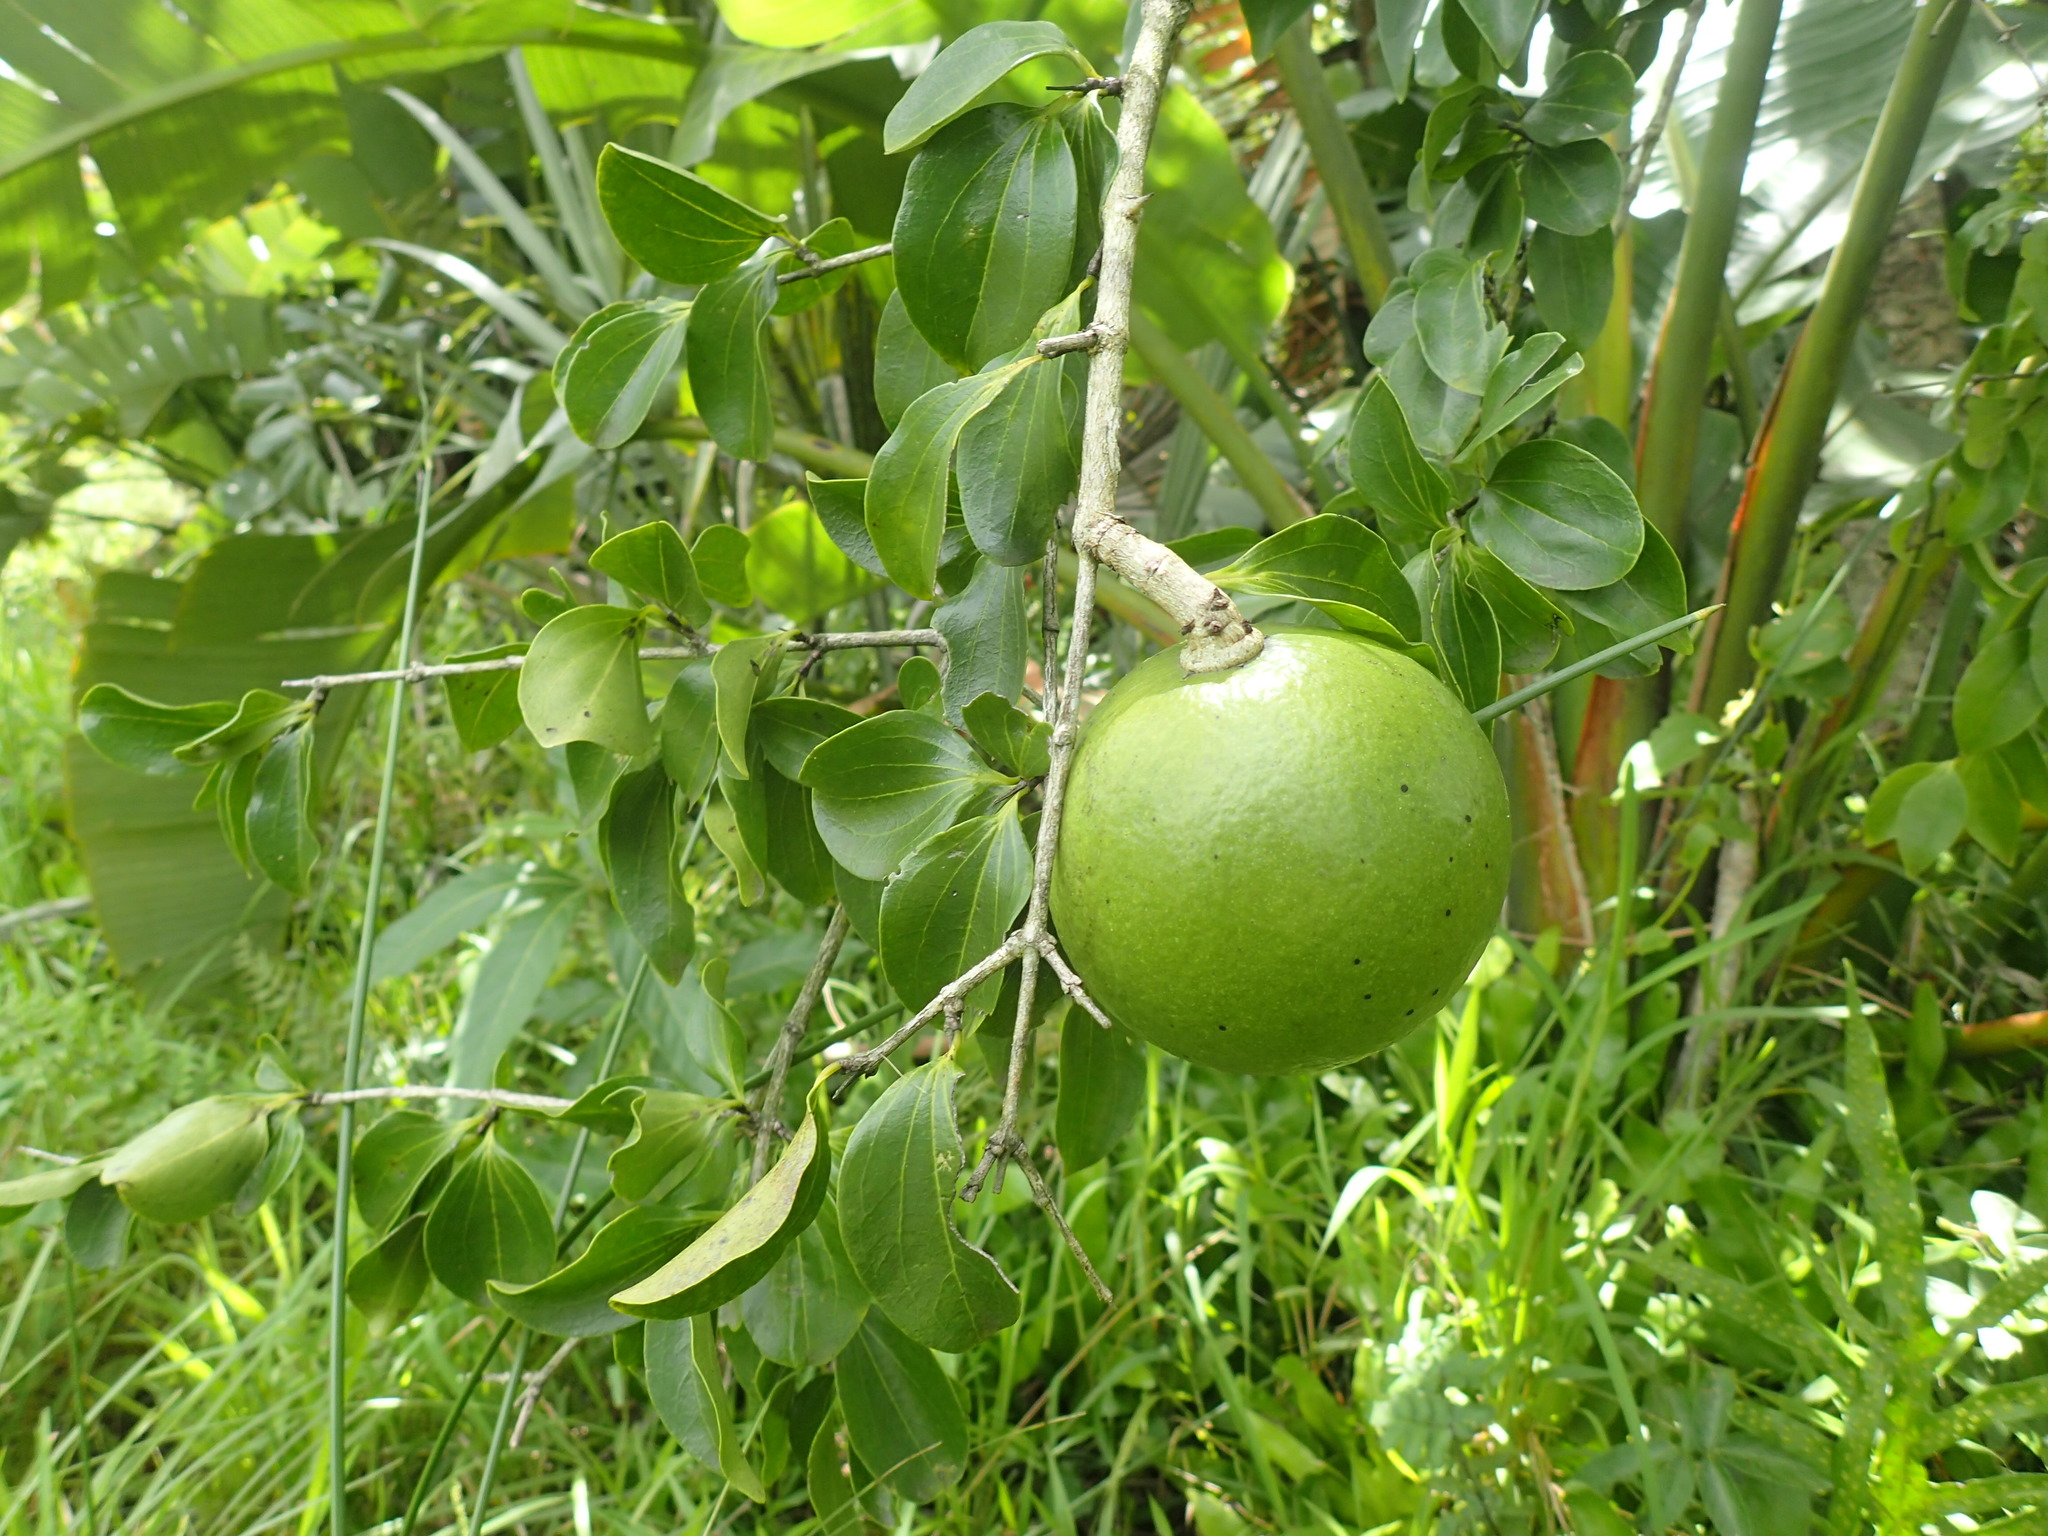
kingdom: Plantae
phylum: Tracheophyta
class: Magnoliopsida
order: Gentianales
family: Loganiaceae
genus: Strychnos
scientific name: Strychnos spinosa
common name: Natal orange
